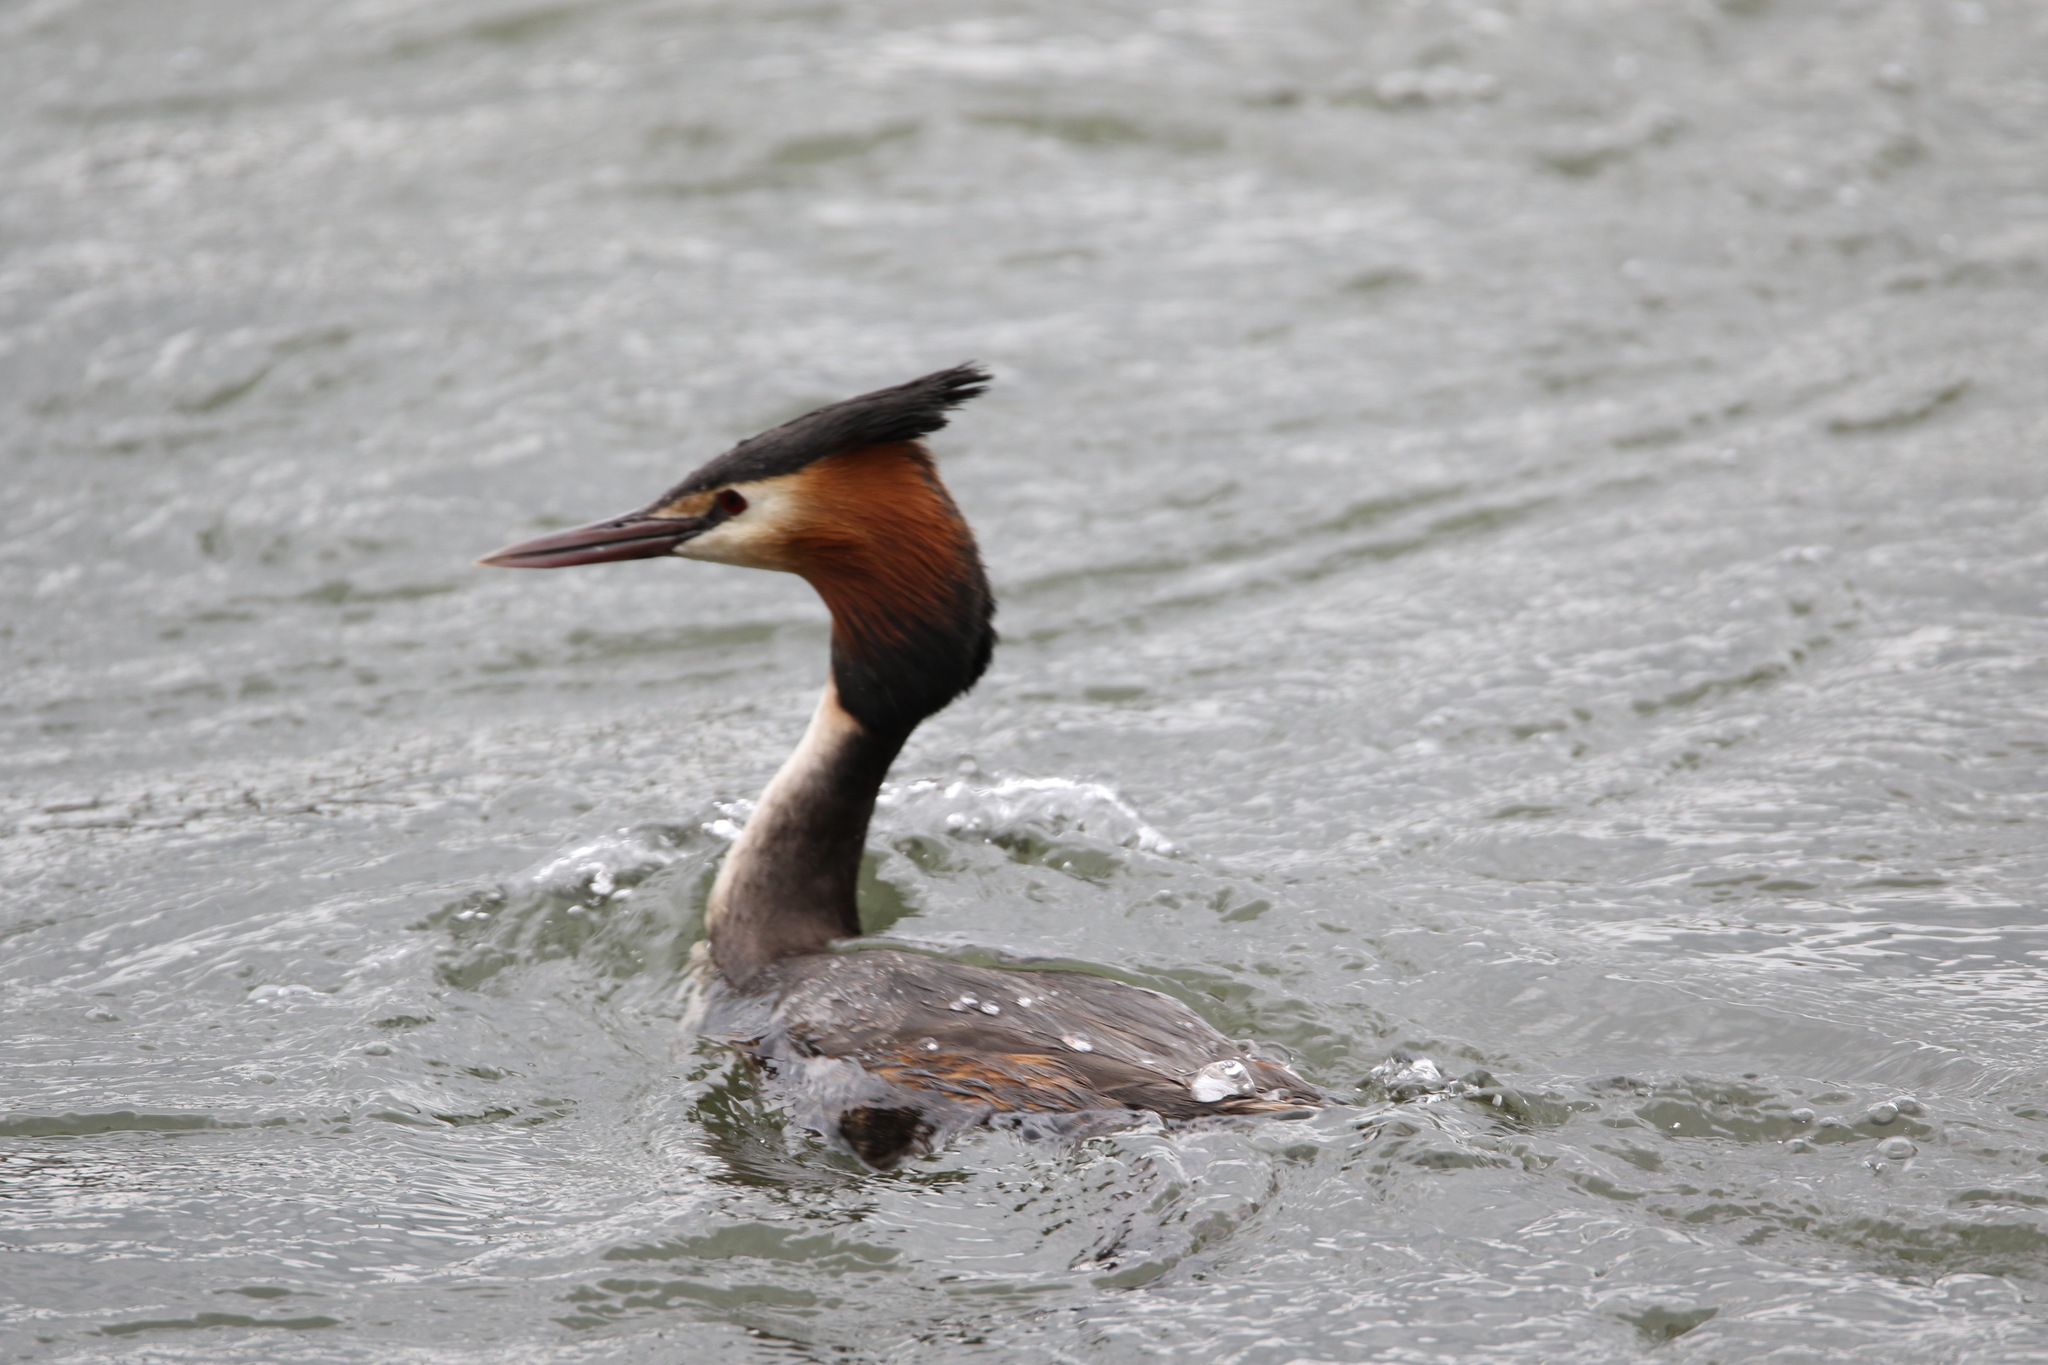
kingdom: Animalia
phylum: Chordata
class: Aves
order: Podicipediformes
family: Podicipedidae
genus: Podiceps
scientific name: Podiceps cristatus
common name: Great crested grebe
